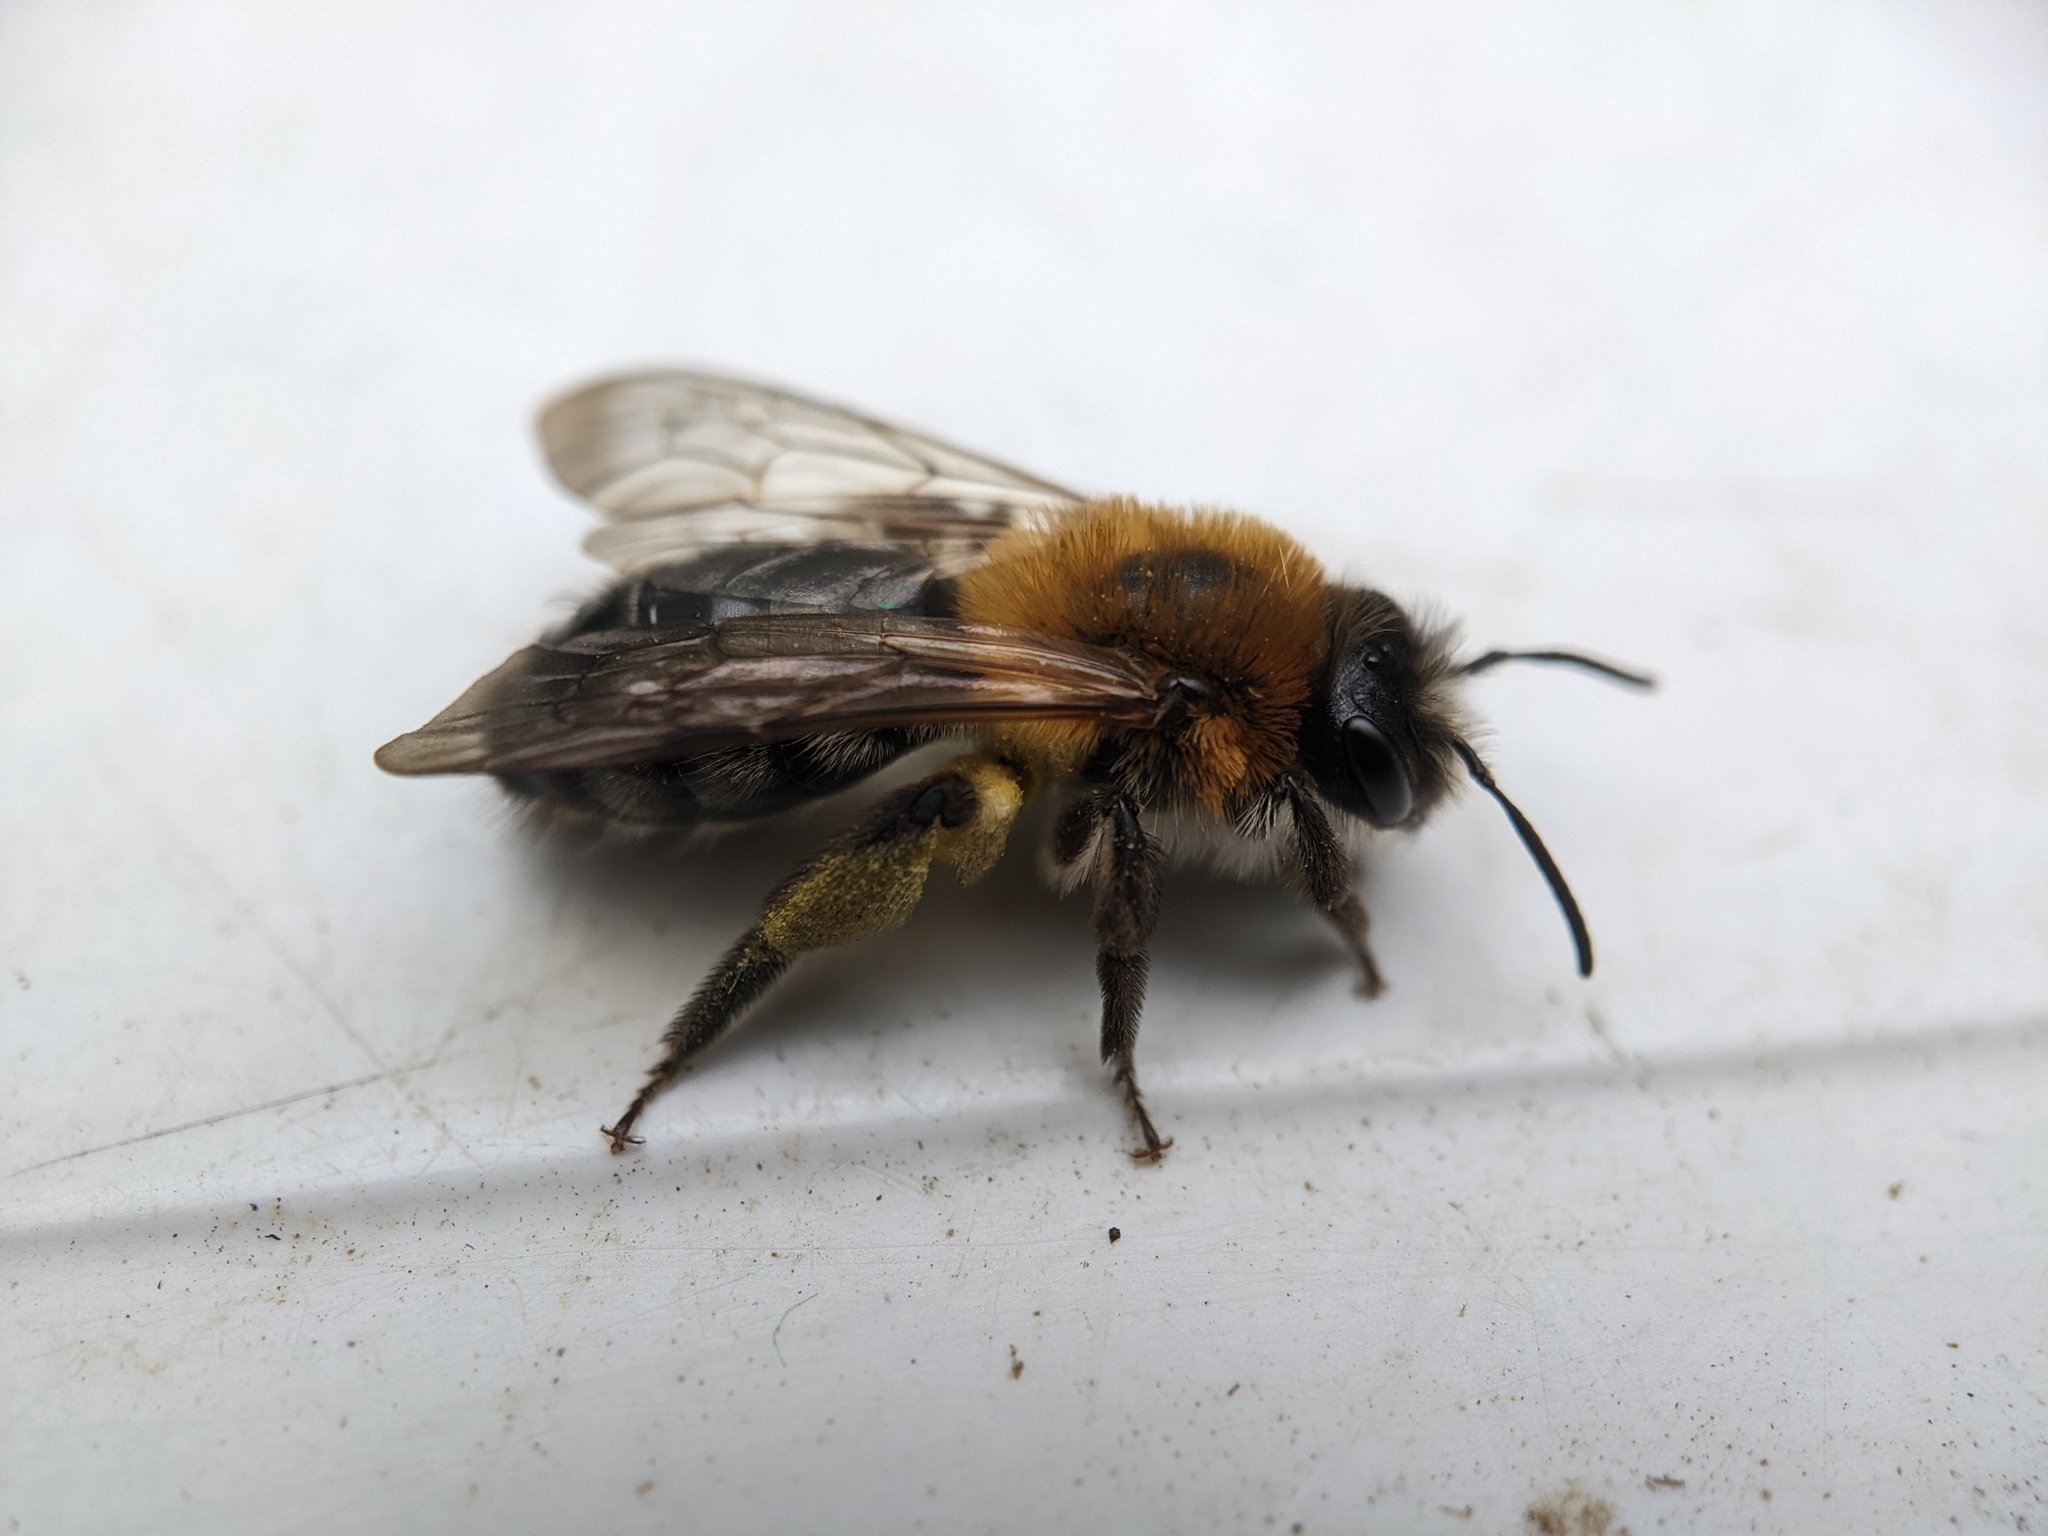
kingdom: Animalia
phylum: Arthropoda
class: Insecta
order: Hymenoptera
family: Andrenidae
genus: Andrena
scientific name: Andrena nitida
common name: Grey-patched mining bee
